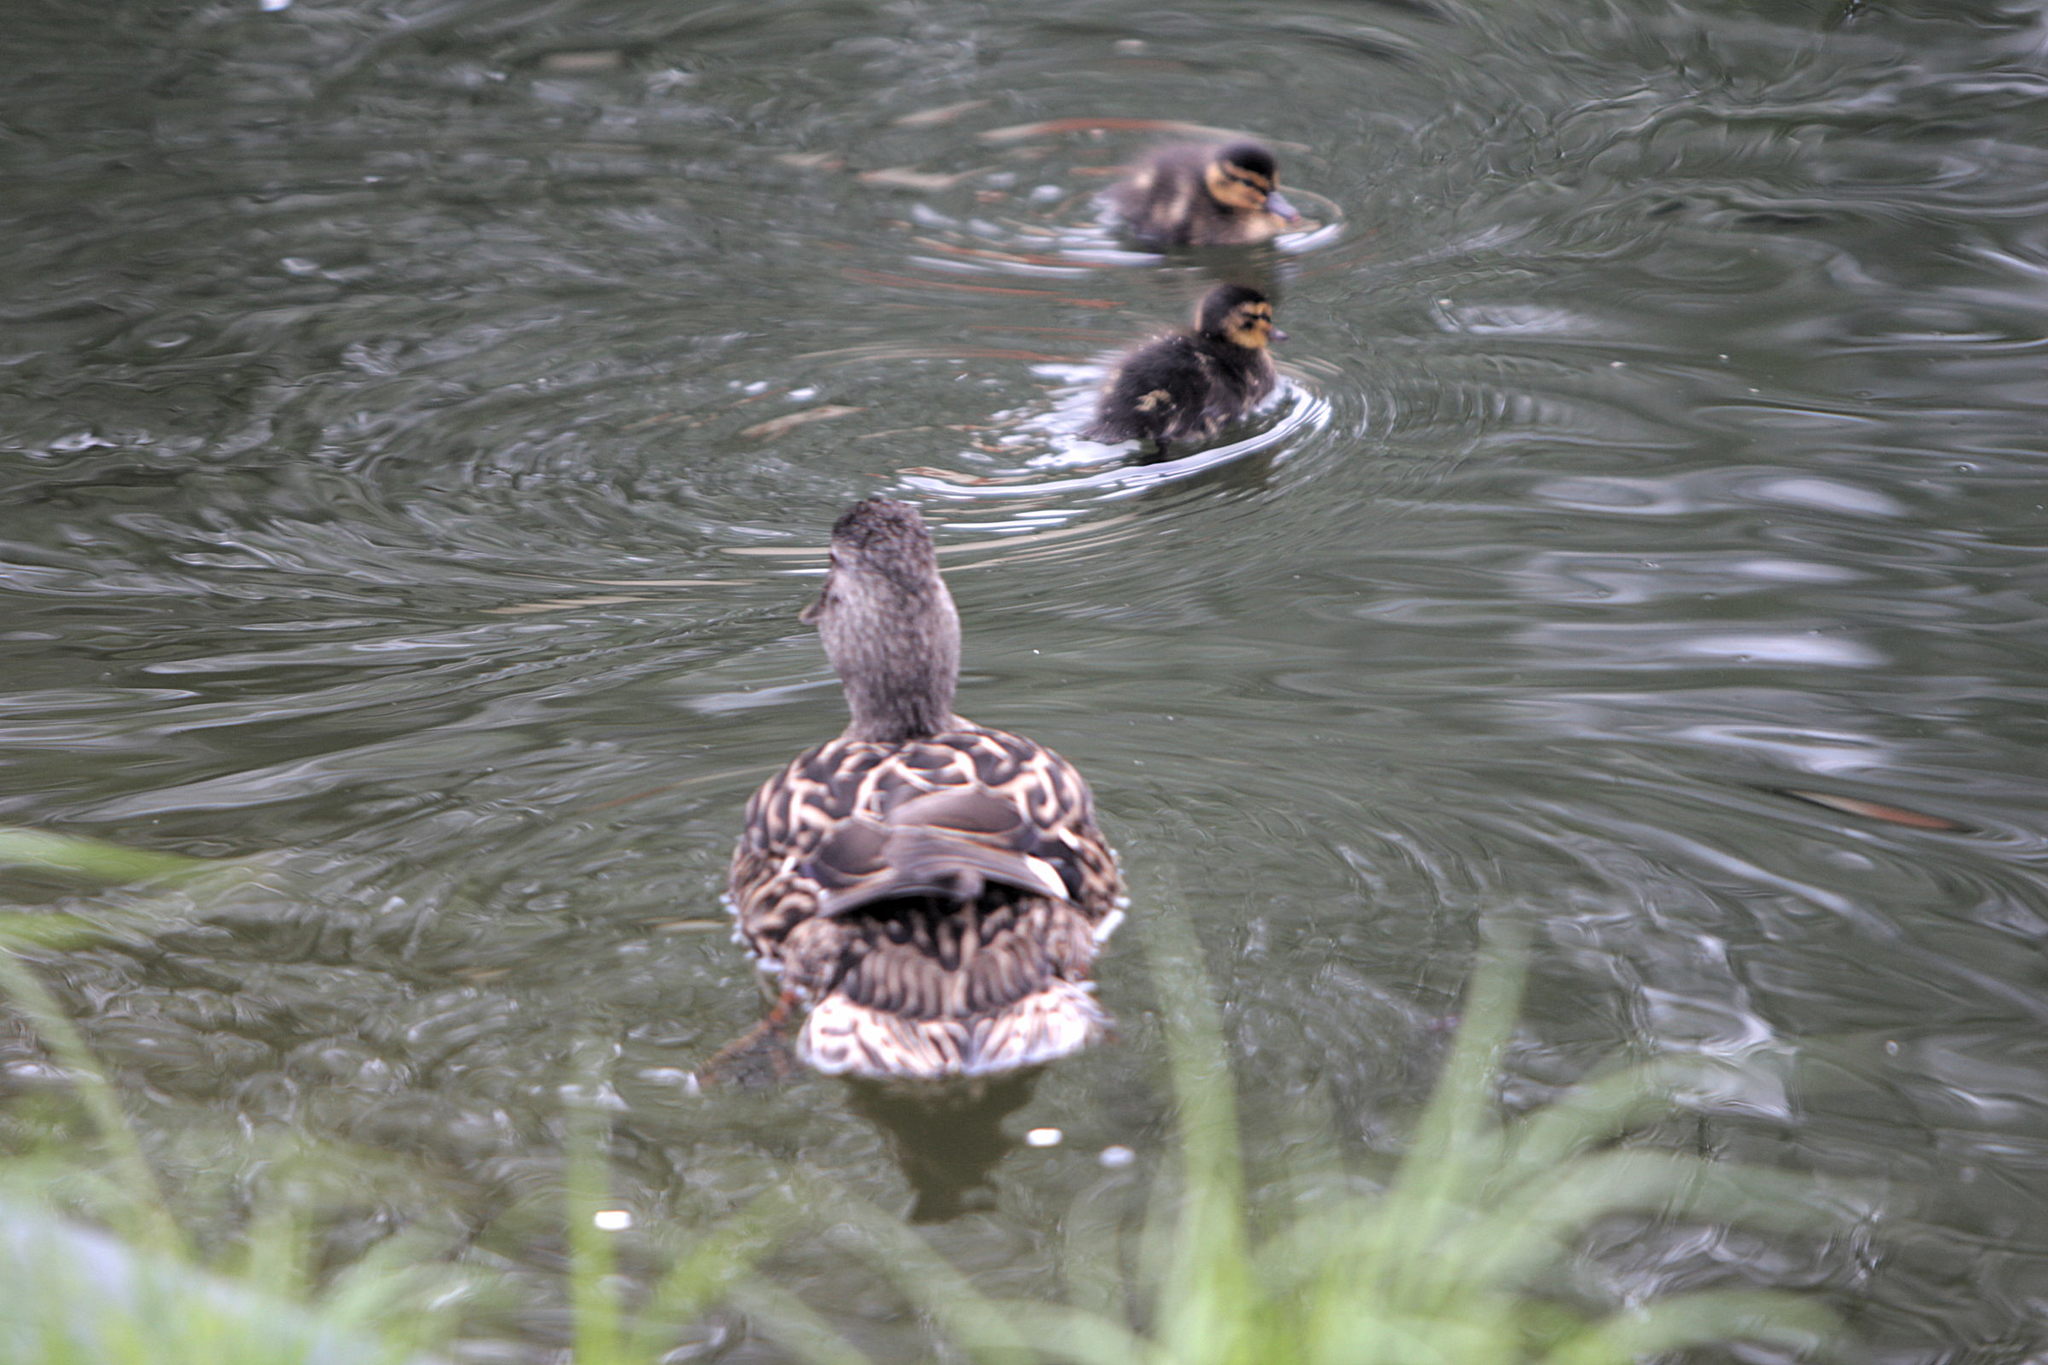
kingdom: Animalia
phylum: Chordata
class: Aves
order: Anseriformes
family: Anatidae
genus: Anas
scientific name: Anas platyrhynchos
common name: Mallard
